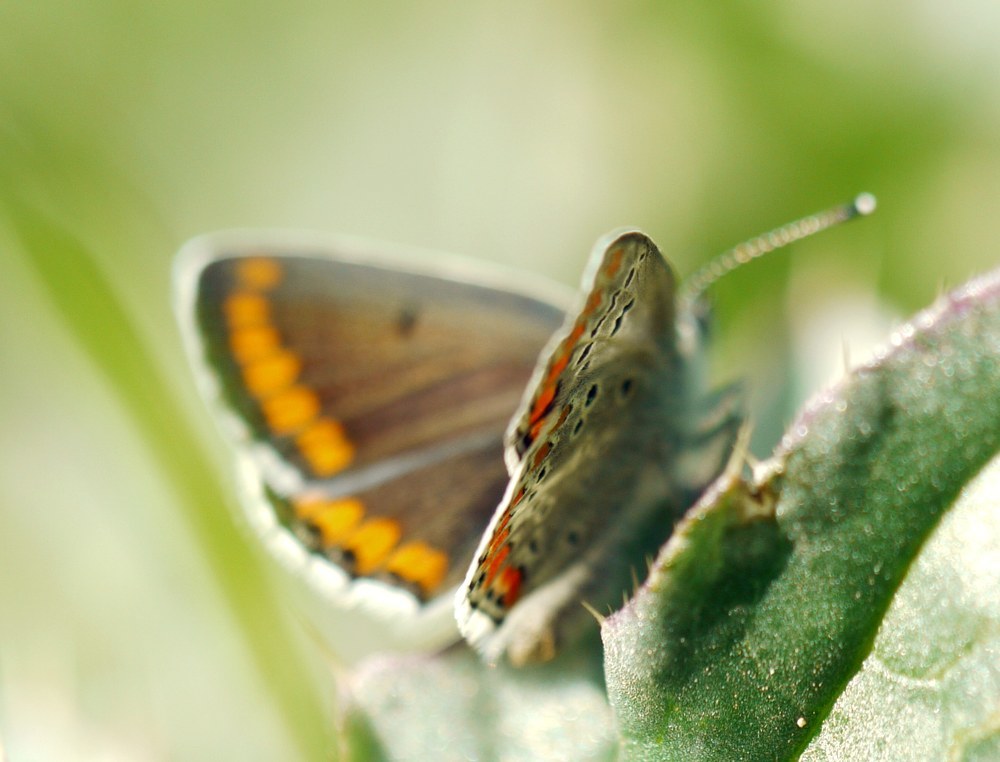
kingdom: Animalia
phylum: Arthropoda
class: Insecta
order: Lepidoptera
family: Lycaenidae
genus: Aricia
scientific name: Aricia agestis
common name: Brown argus
